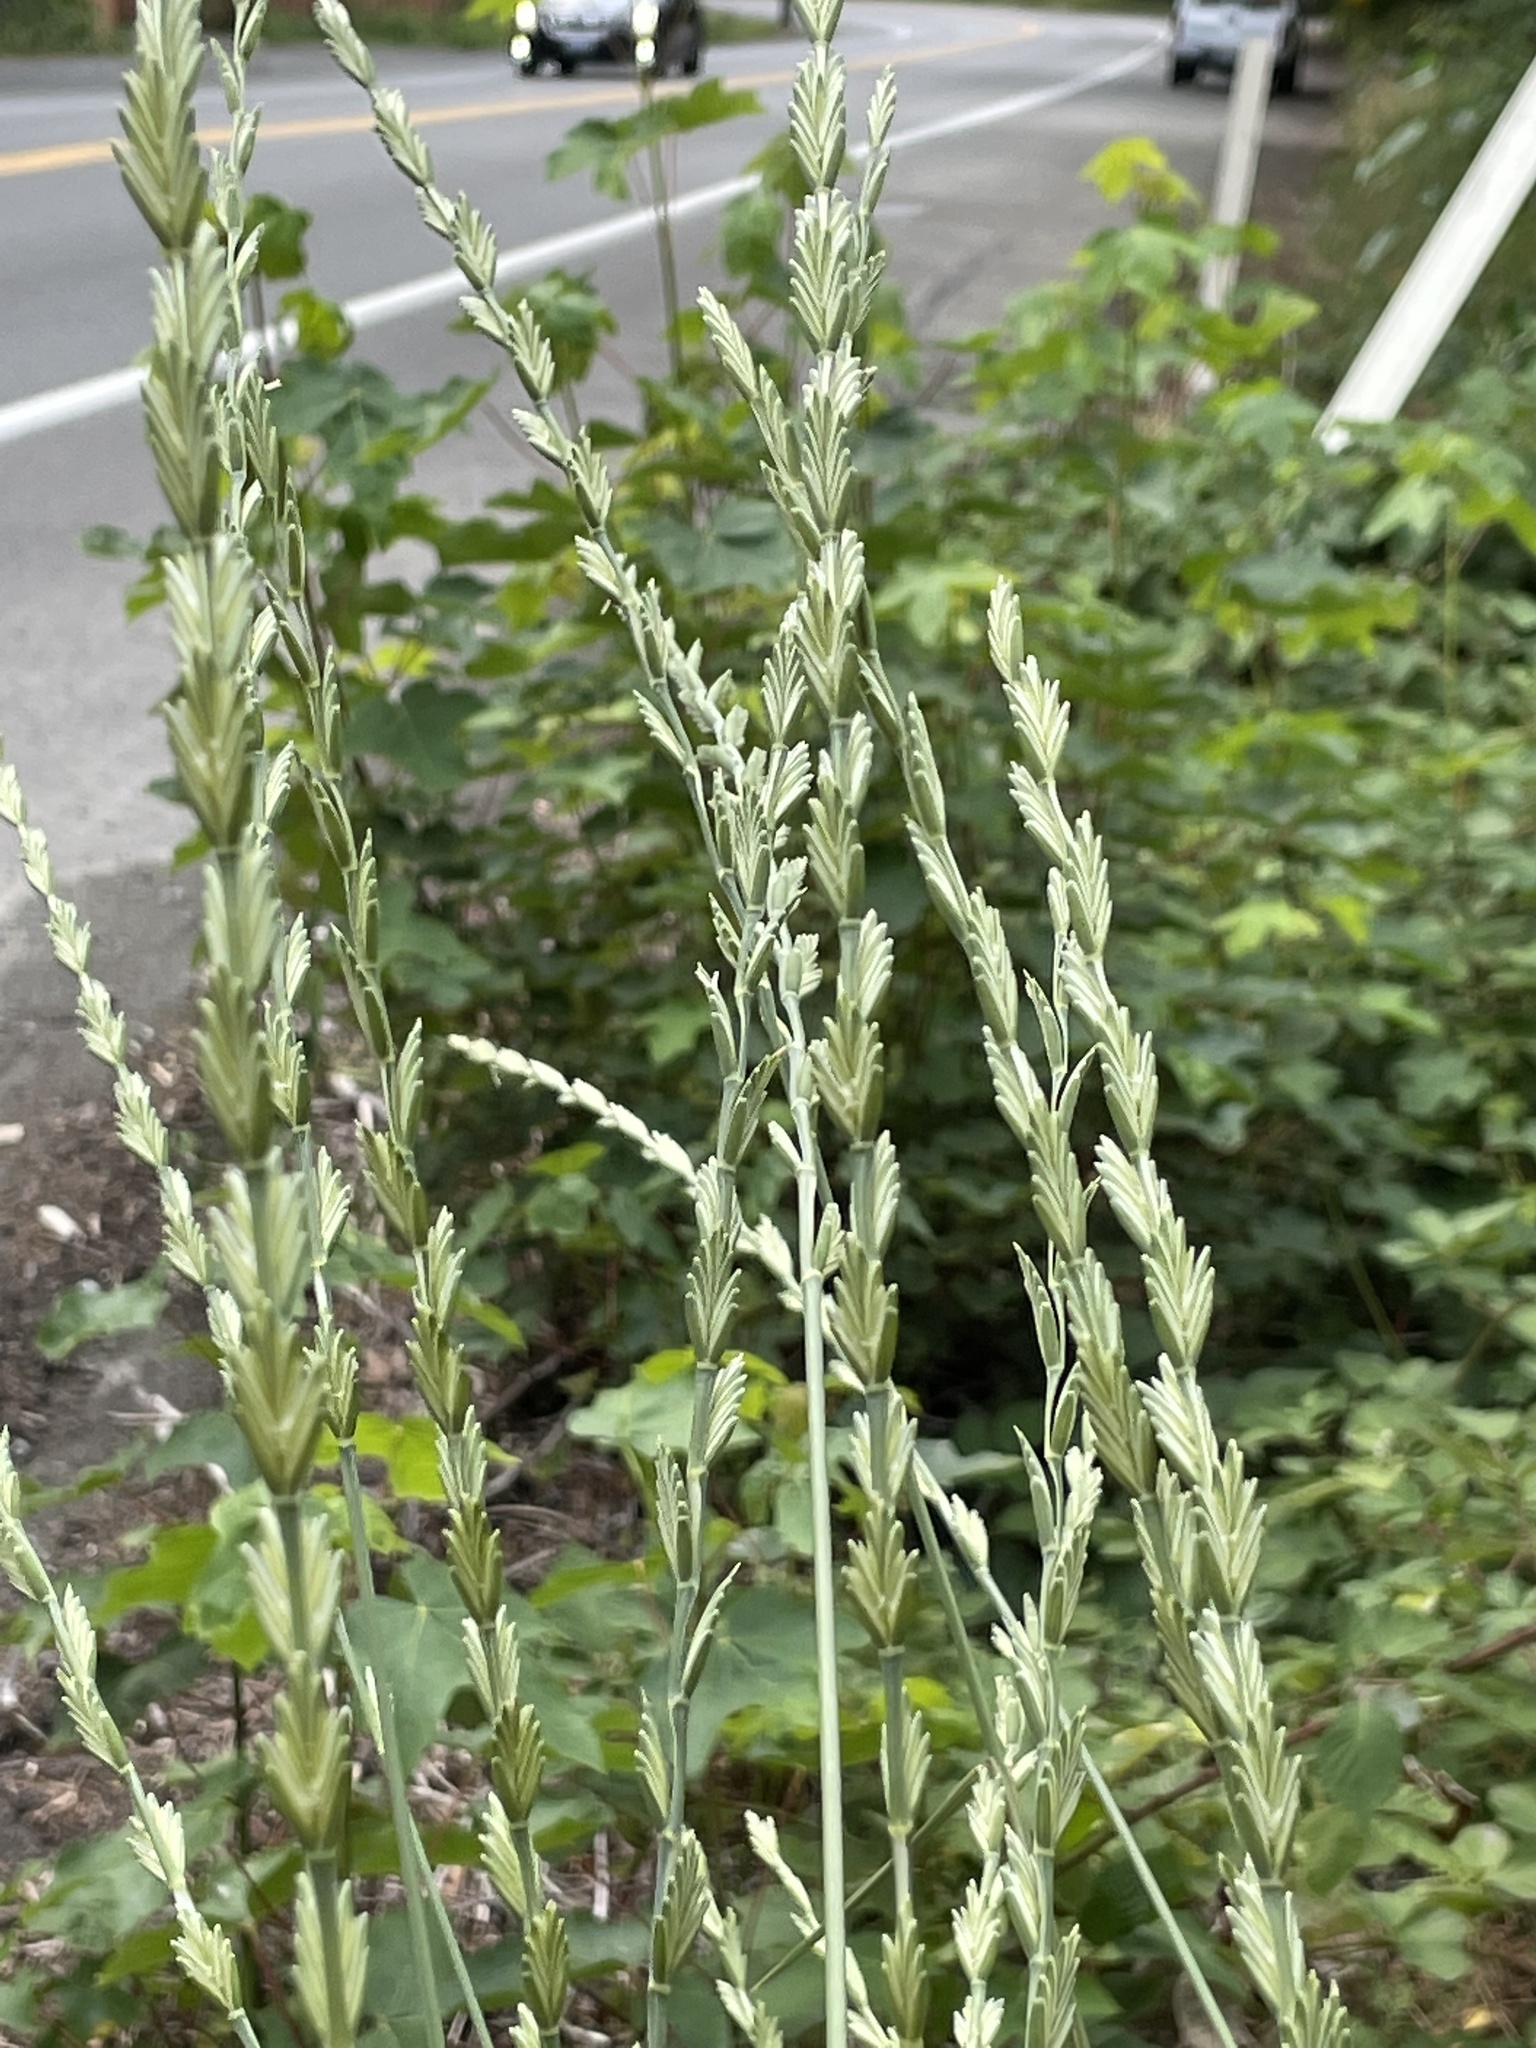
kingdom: Plantae
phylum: Tracheophyta
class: Liliopsida
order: Poales
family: Poaceae
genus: Thinopyrum
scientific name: Thinopyrum obtusiflorum
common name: Eurasian quackgrass
